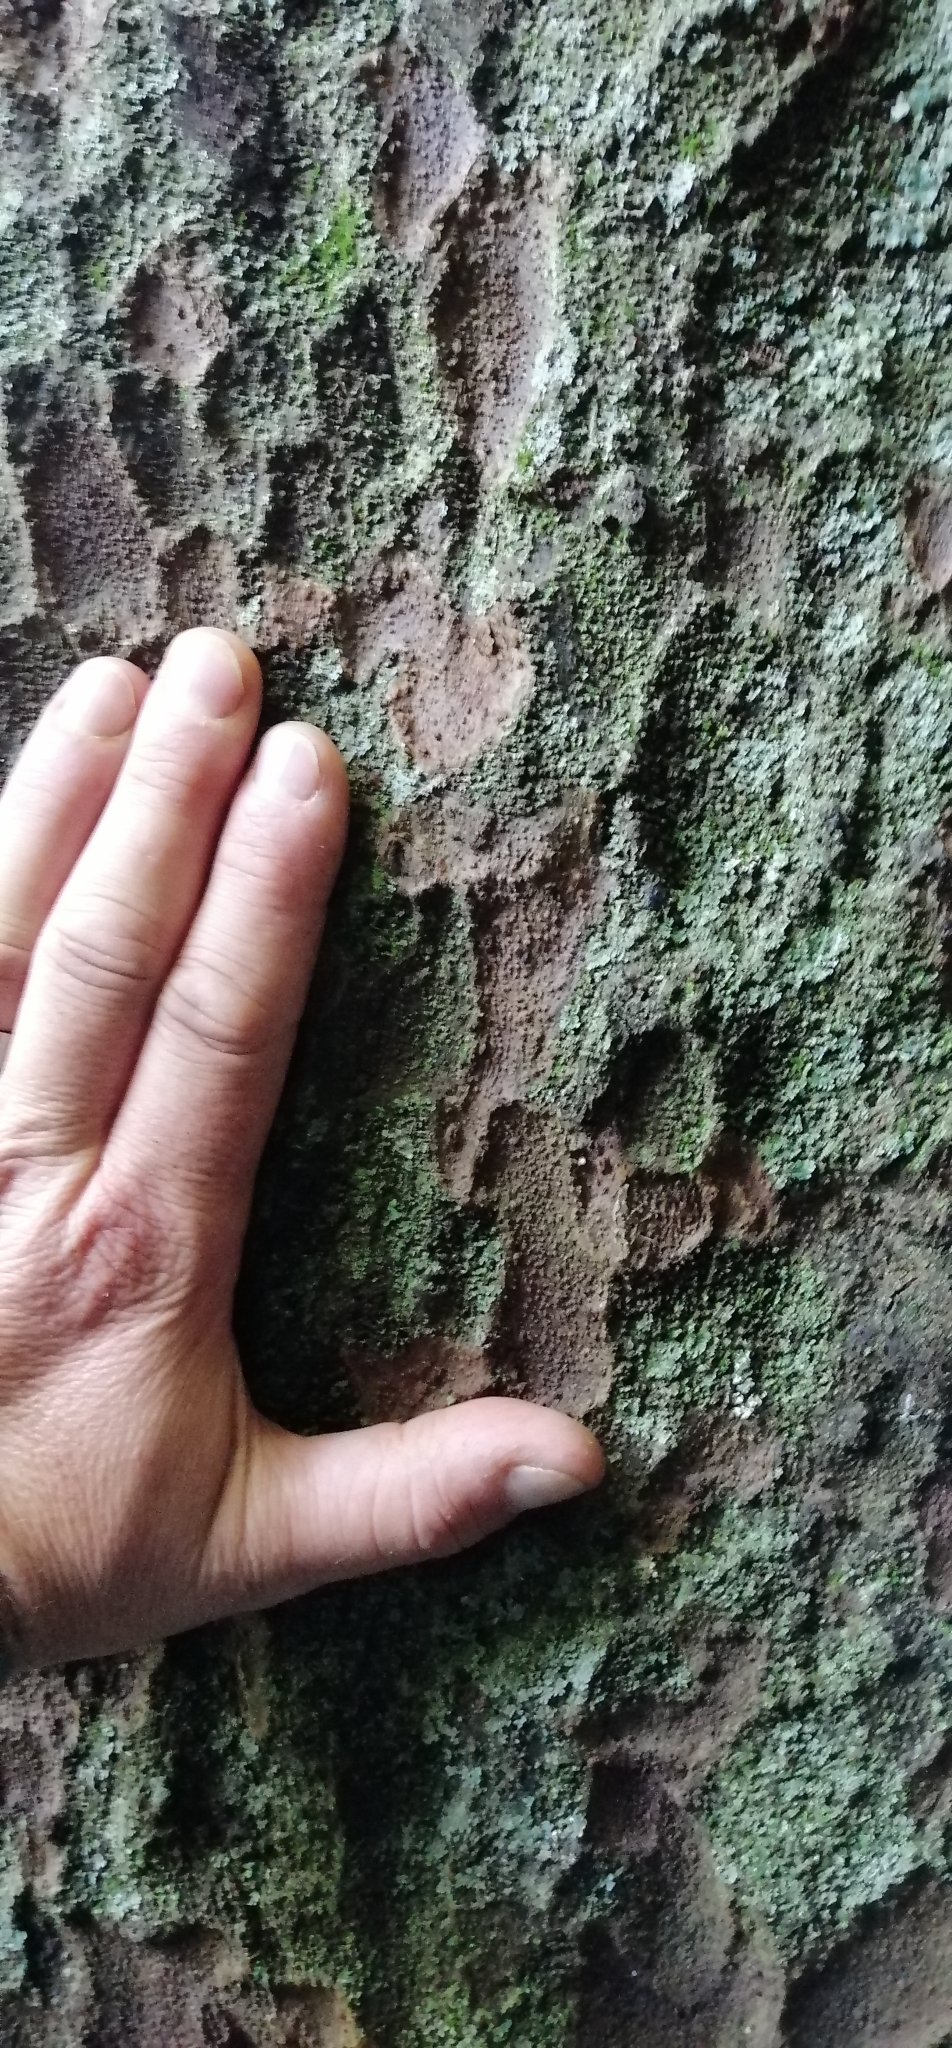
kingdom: Plantae
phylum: Tracheophyta
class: Pinopsida
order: Pinales
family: Podocarpaceae
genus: Prumnopitys
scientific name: Prumnopitys taxifolia
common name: Matai
